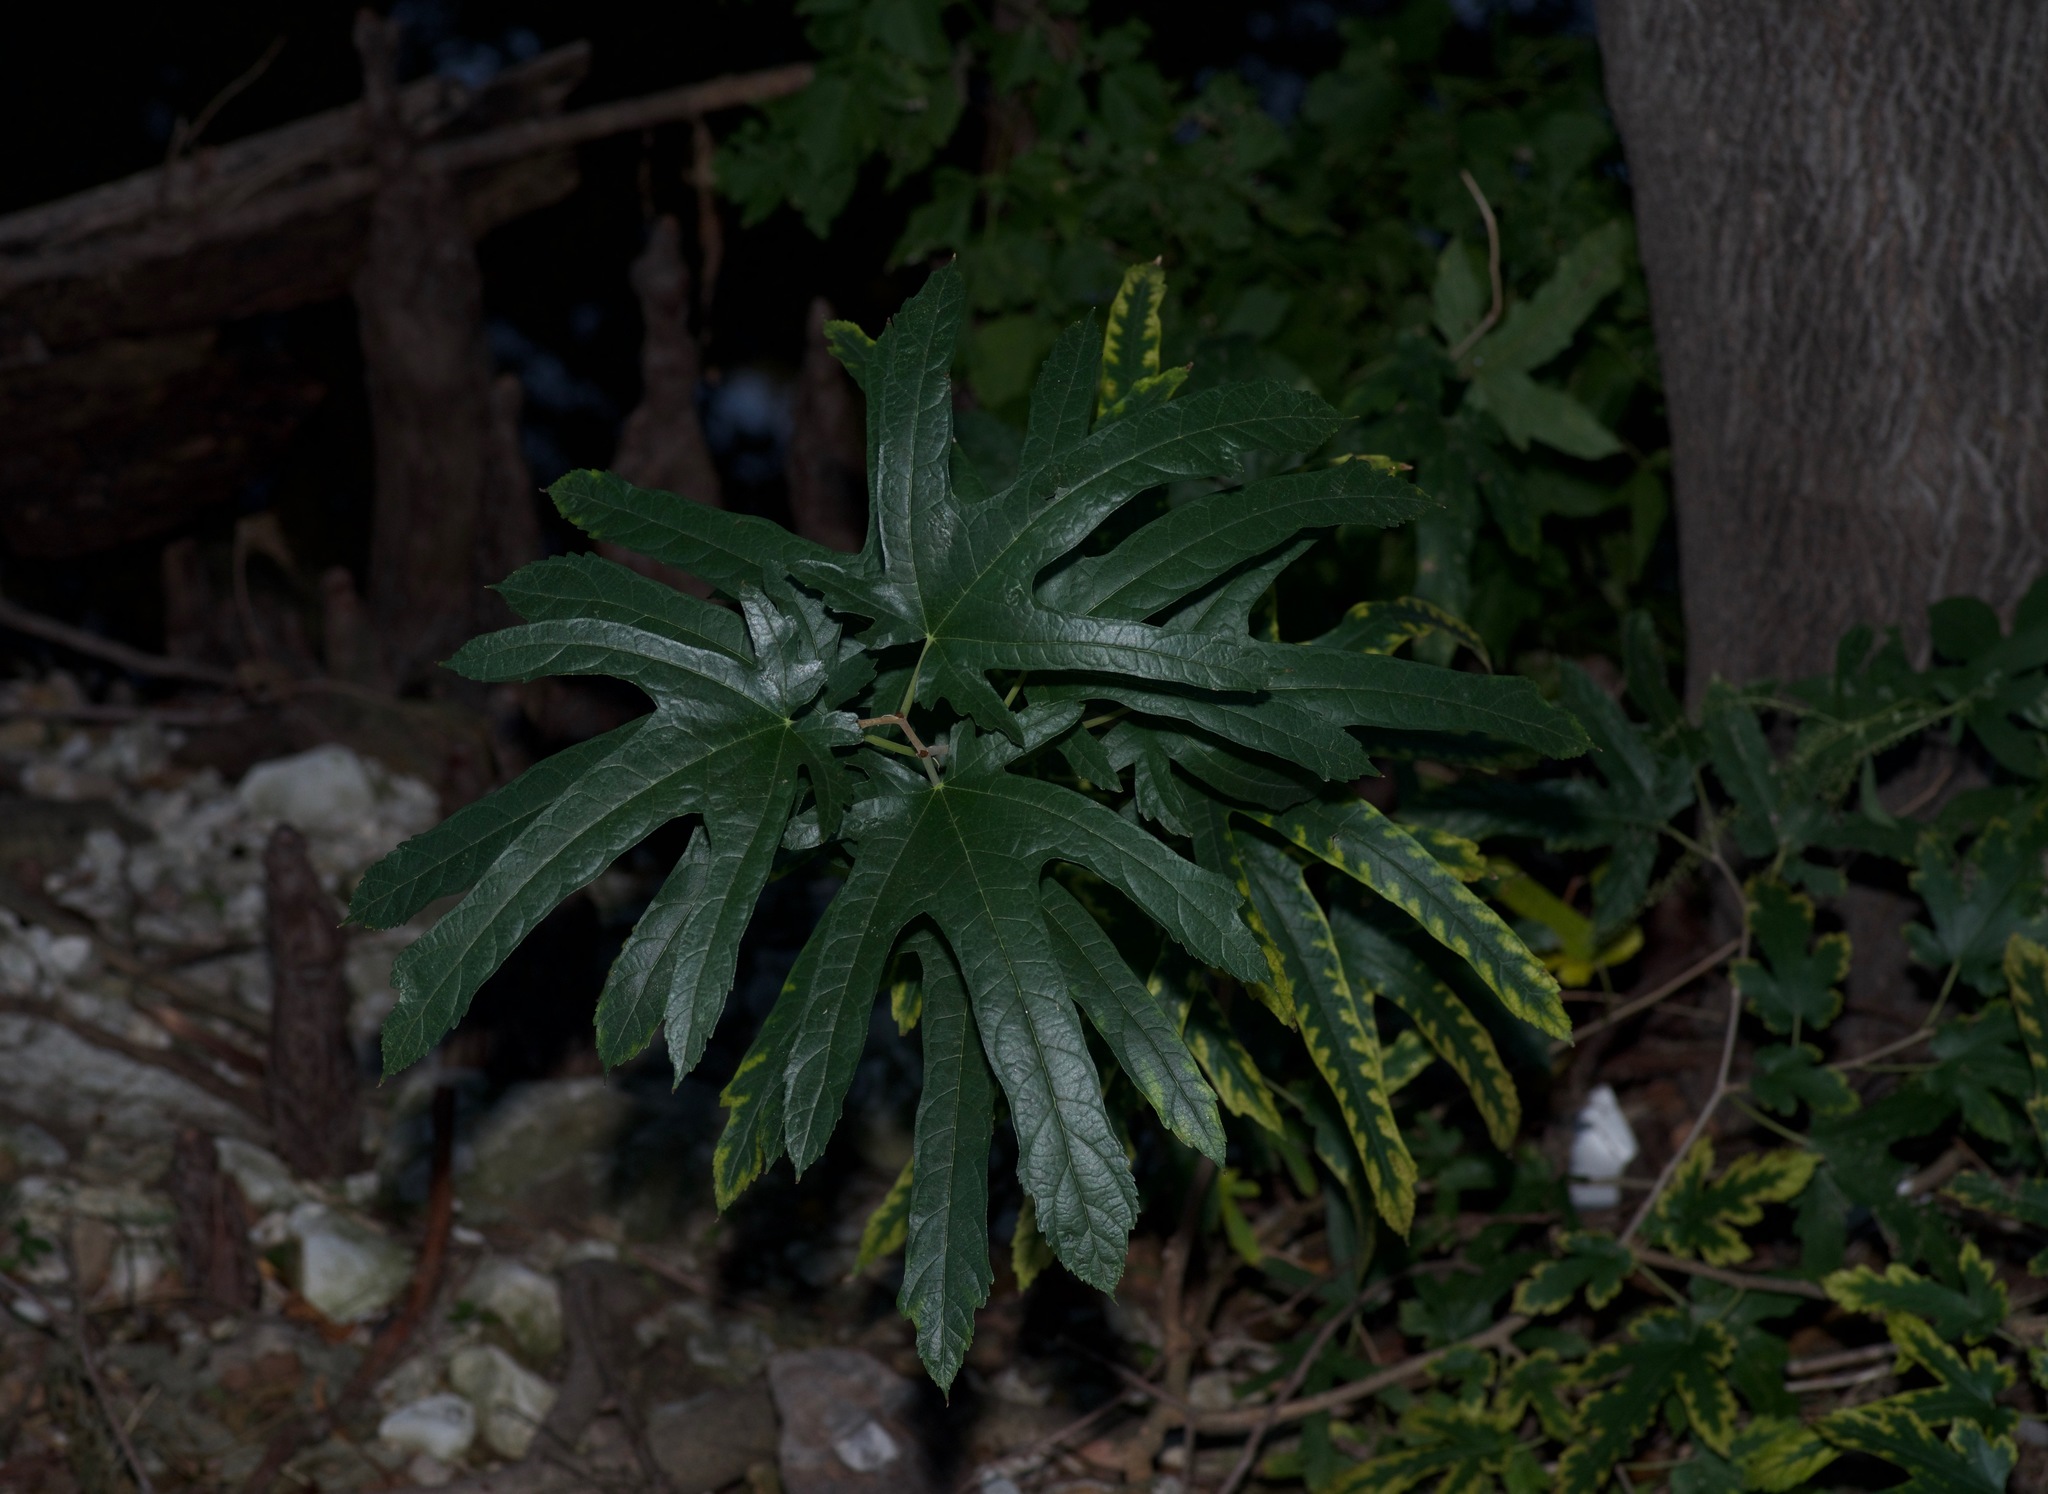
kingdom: Plantae
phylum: Tracheophyta
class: Magnoliopsida
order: Rosales
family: Moraceae
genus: Morus
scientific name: Morus indica
